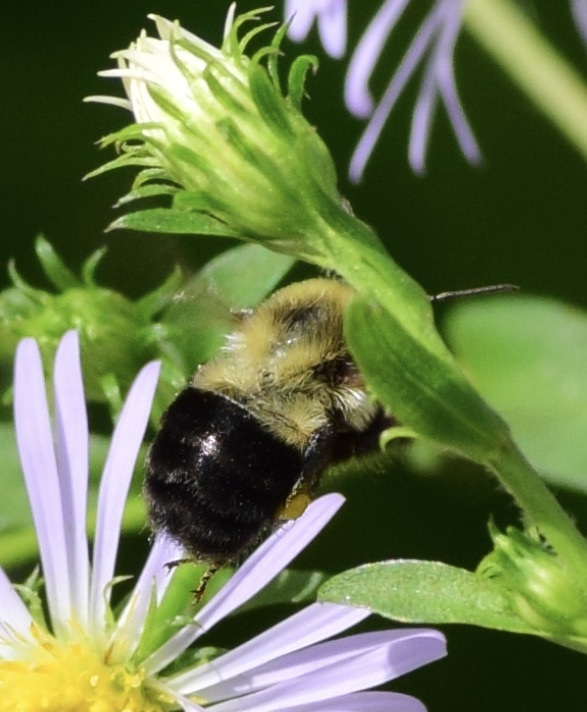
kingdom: Animalia
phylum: Arthropoda
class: Insecta
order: Hymenoptera
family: Apidae
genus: Bombus
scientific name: Bombus impatiens
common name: Common eastern bumble bee
